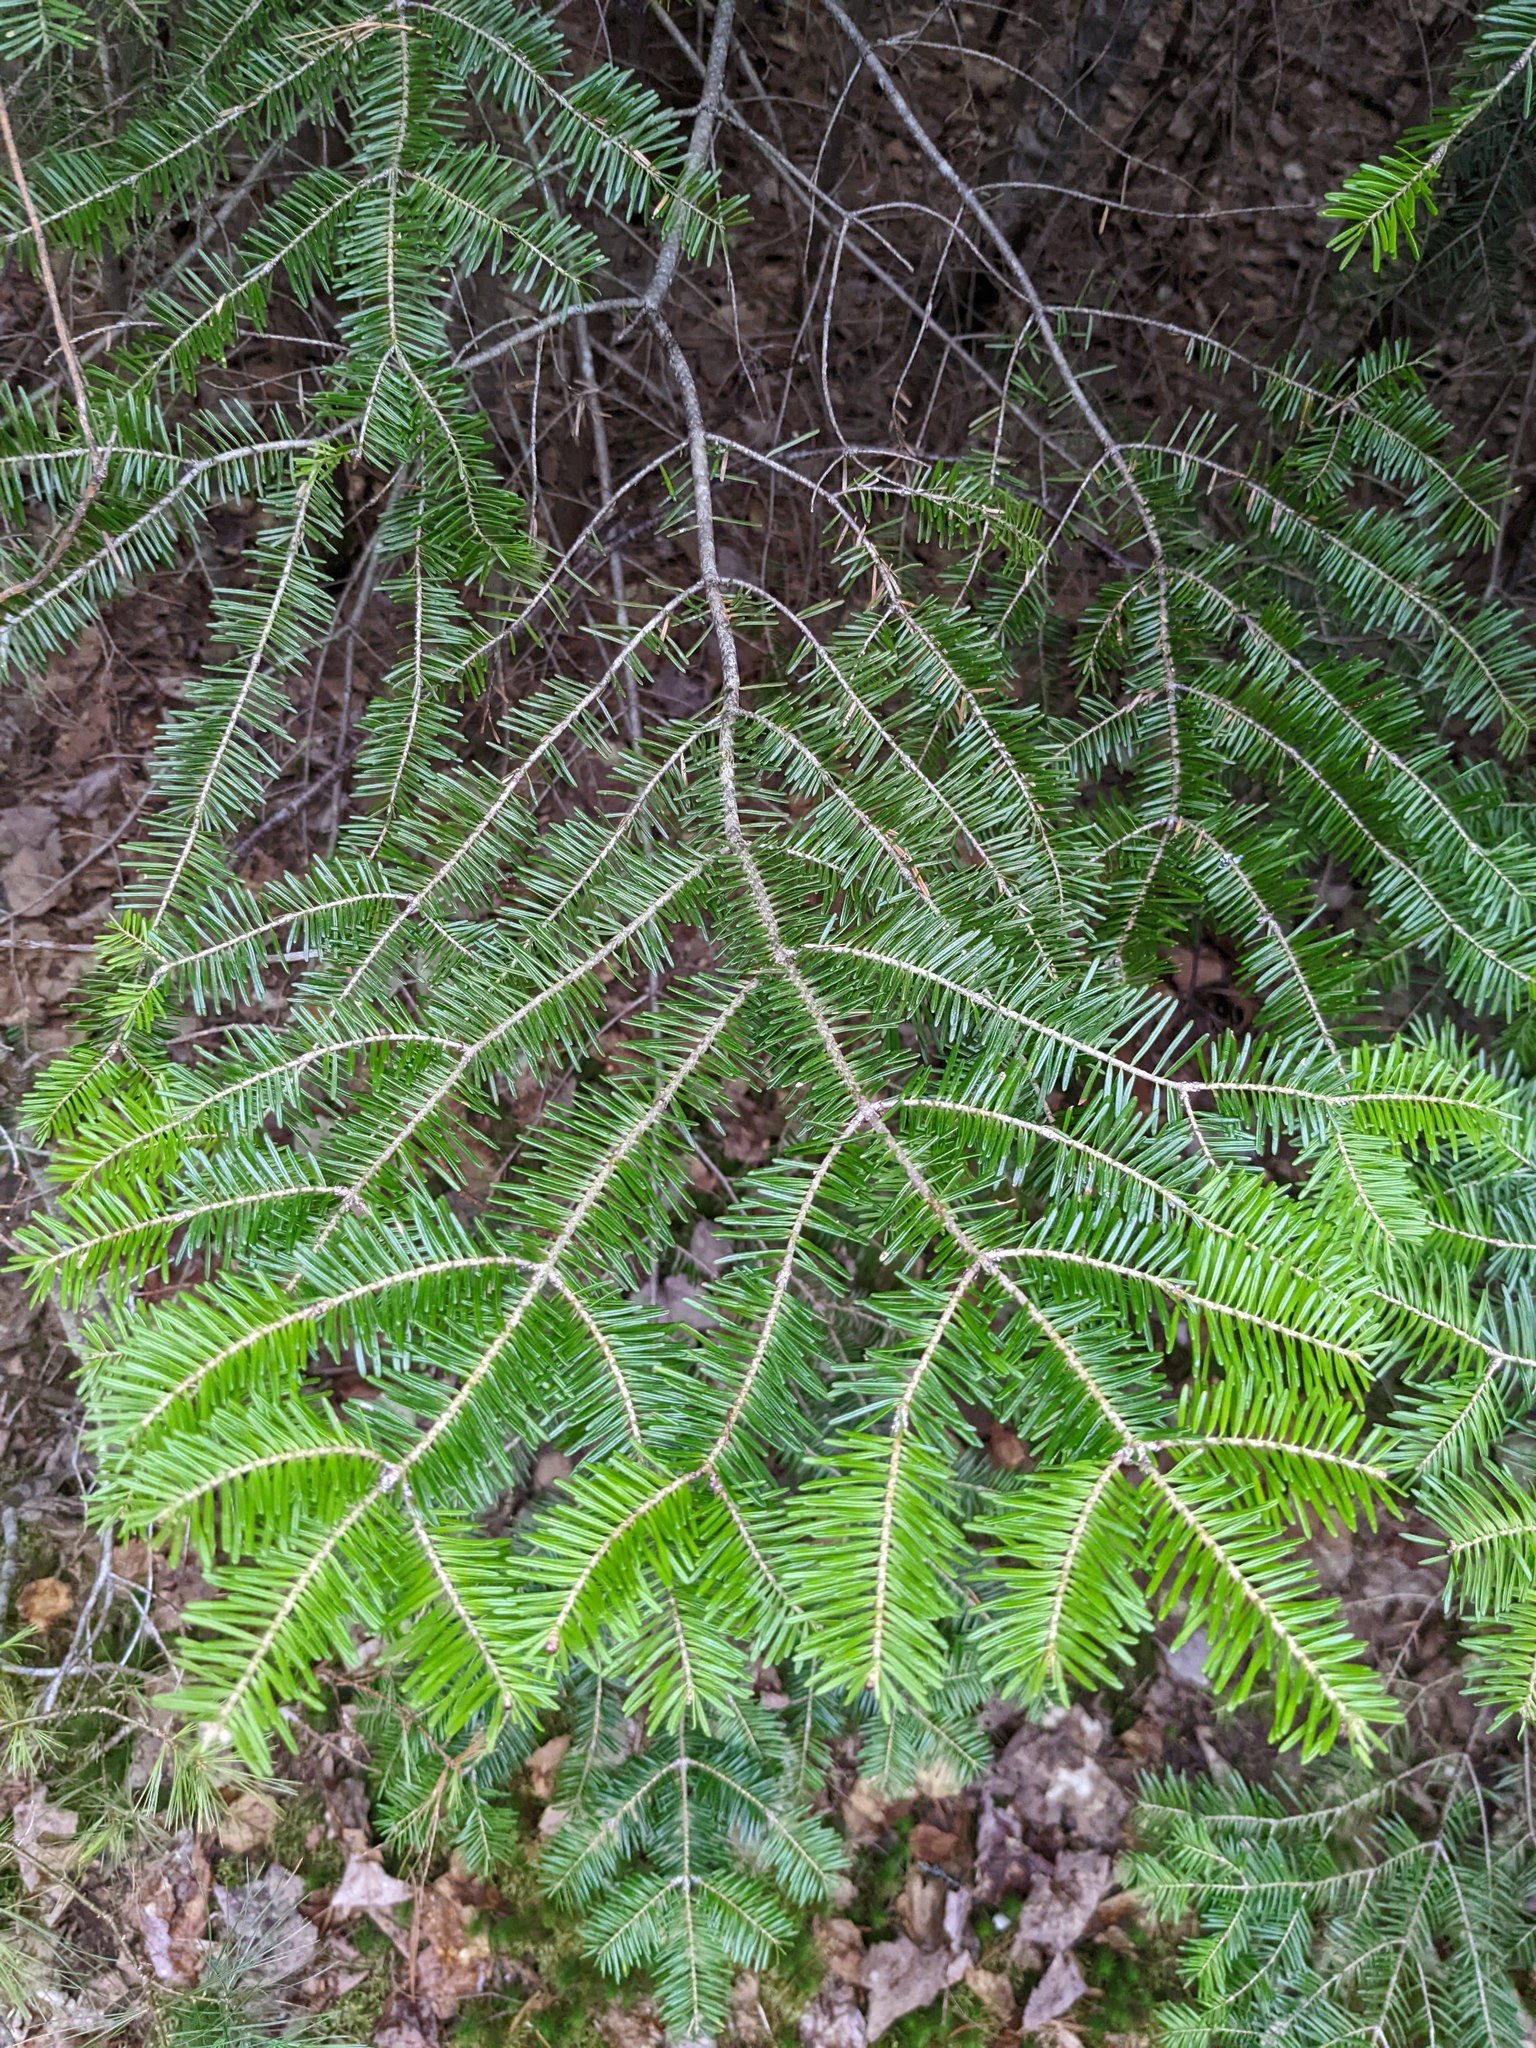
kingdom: Plantae
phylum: Tracheophyta
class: Pinopsida
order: Pinales
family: Pinaceae
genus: Abies
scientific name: Abies balsamea
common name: Balsam fir
